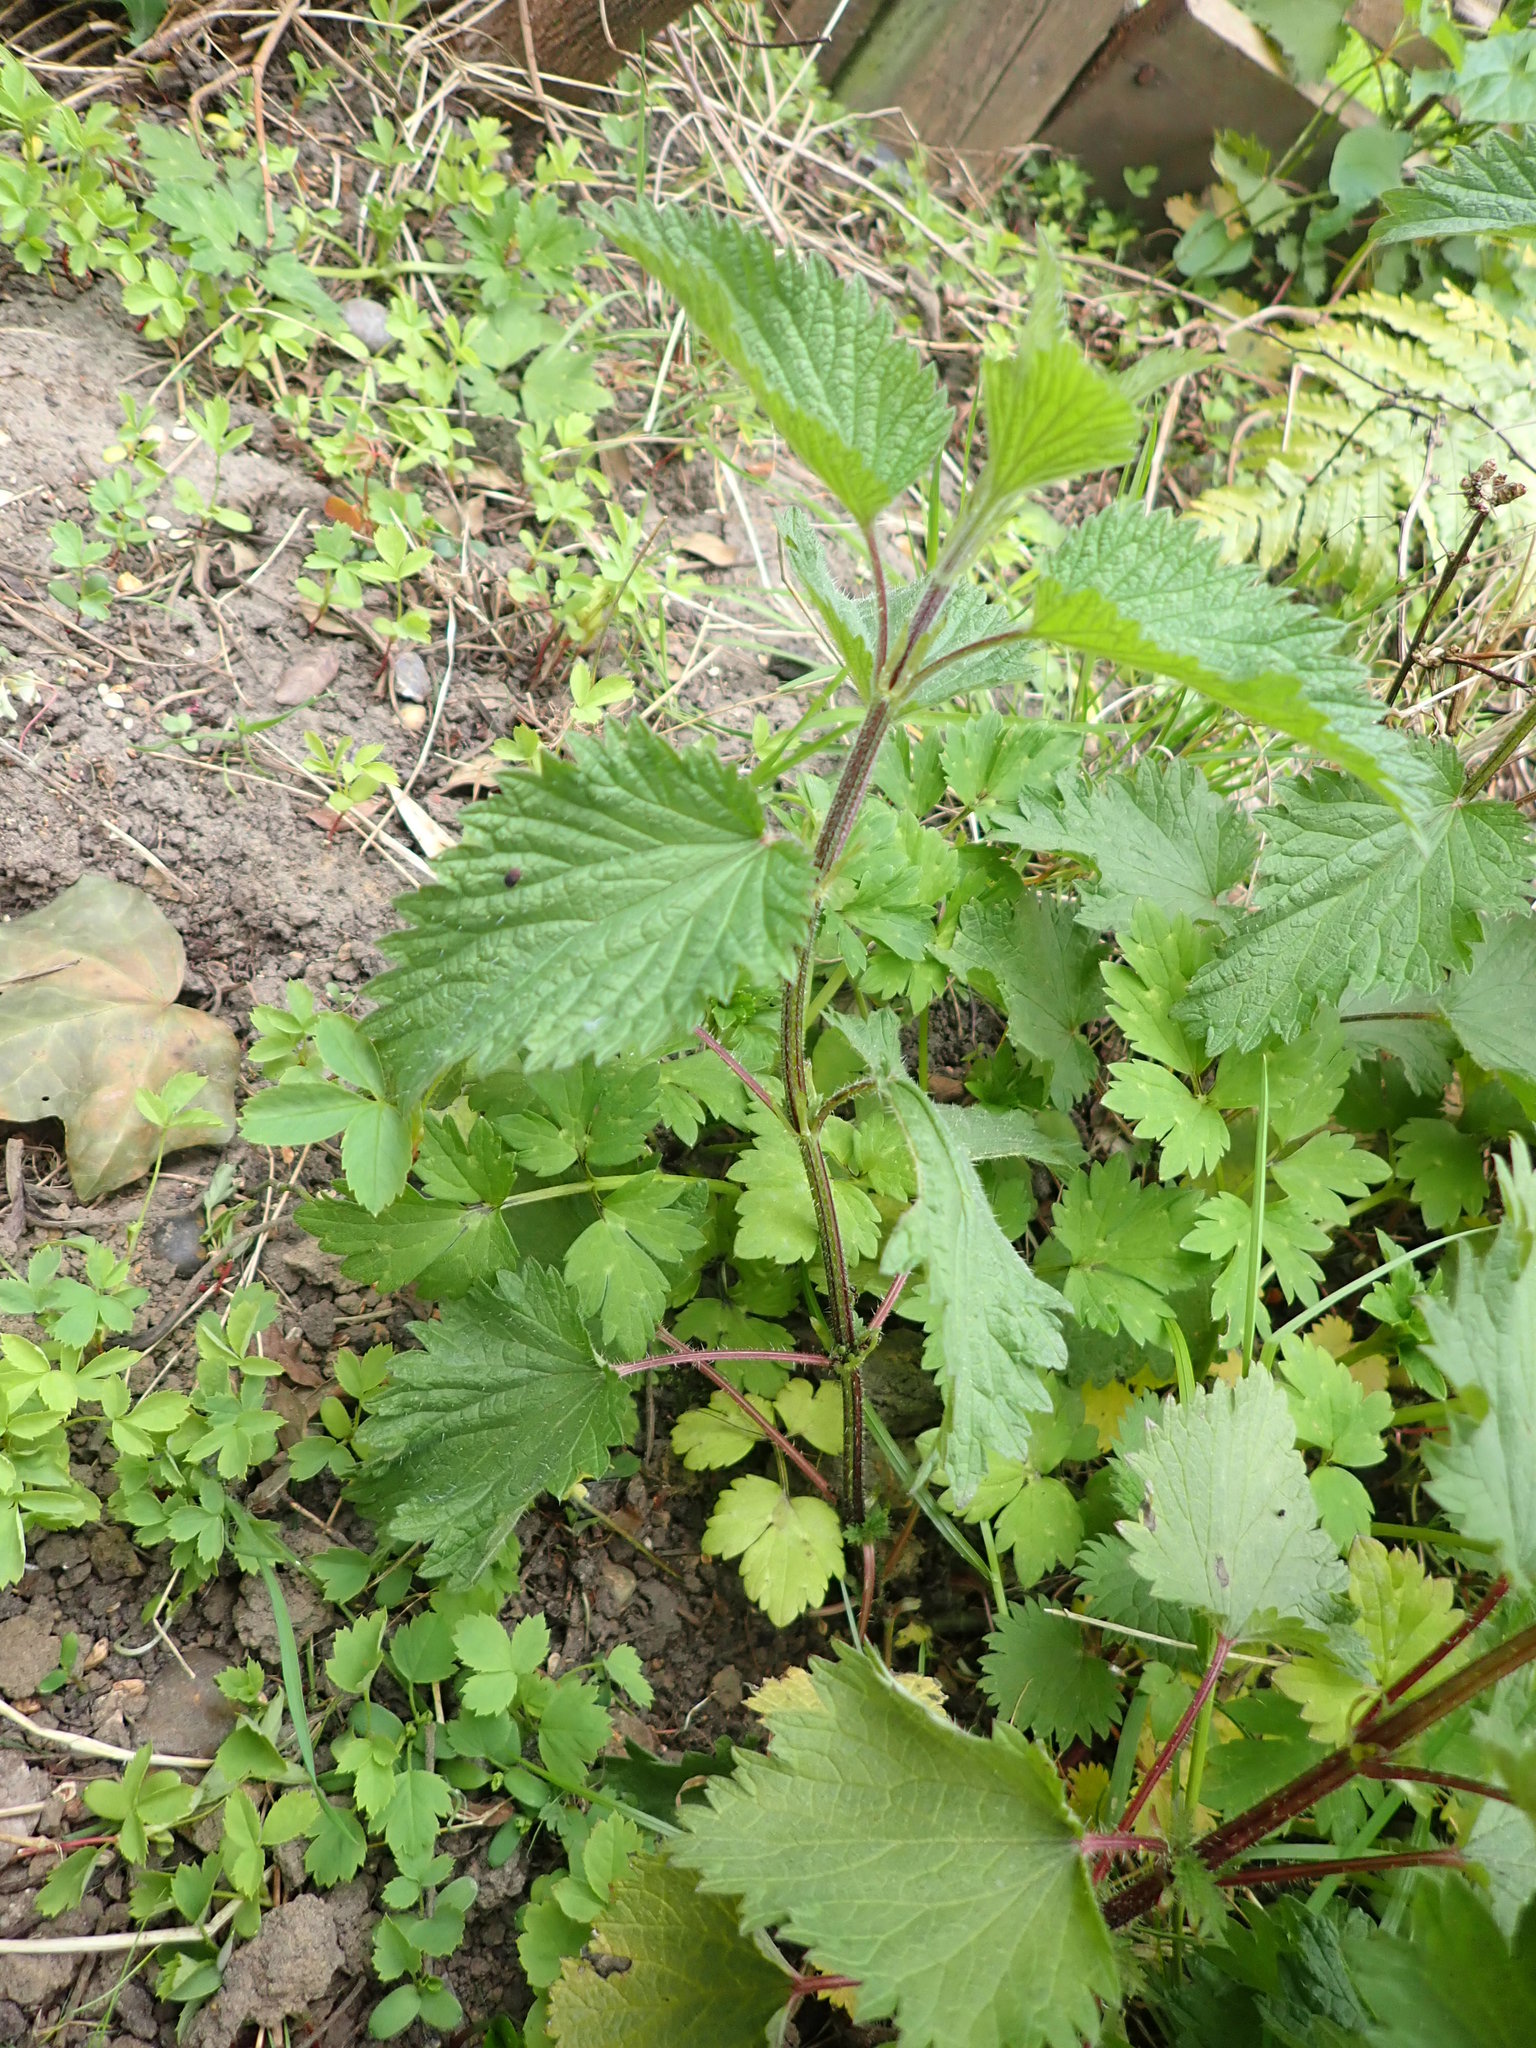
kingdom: Plantae
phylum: Tracheophyta
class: Magnoliopsida
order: Rosales
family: Urticaceae
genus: Urtica
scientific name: Urtica dioica
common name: Common nettle
